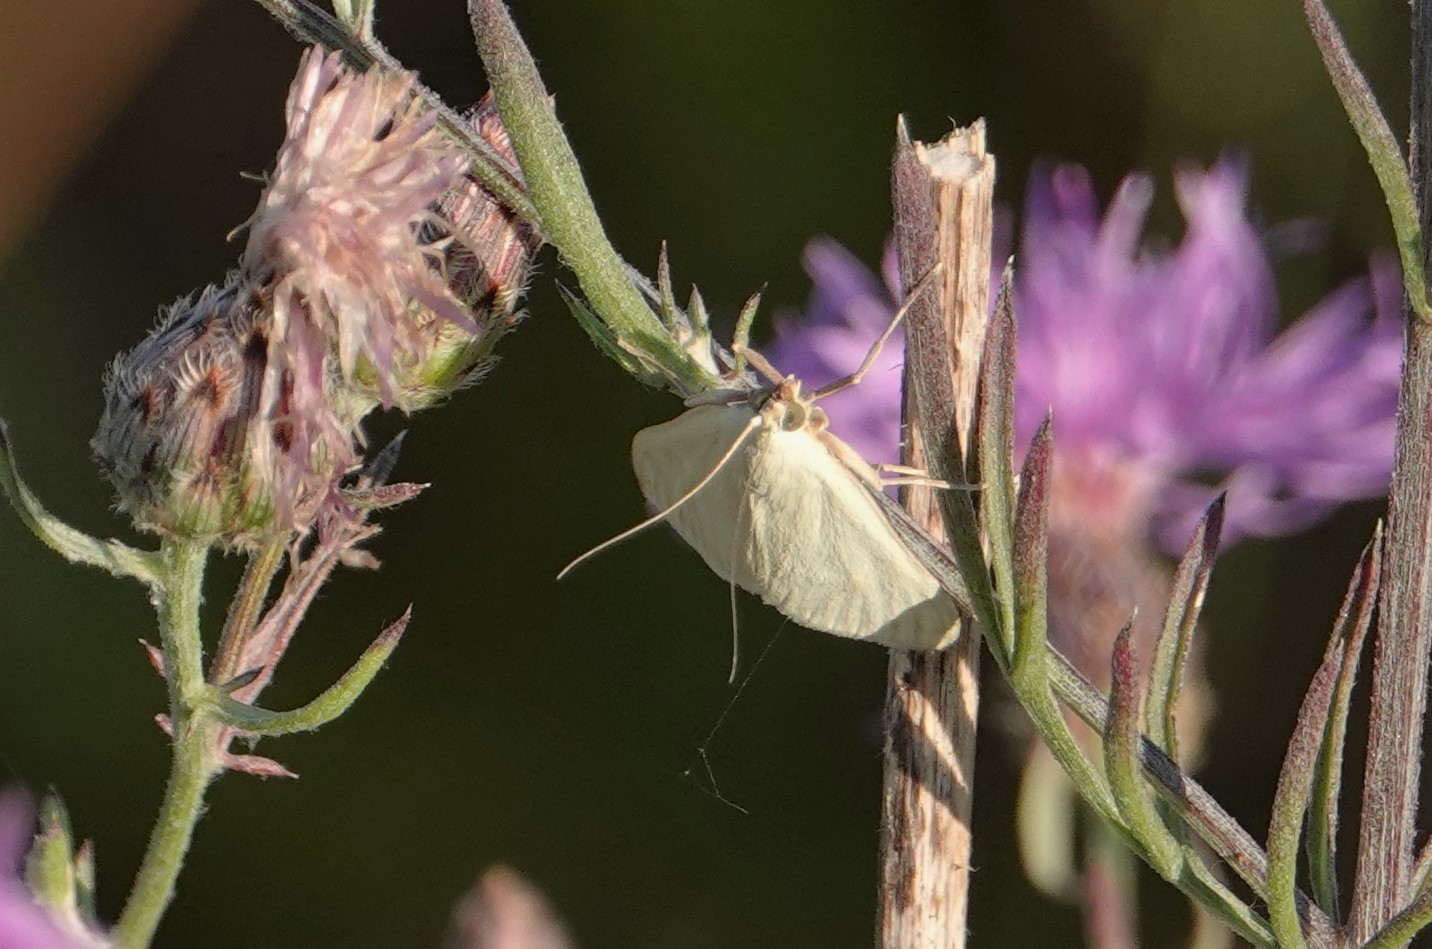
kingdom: Animalia
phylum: Arthropoda
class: Insecta
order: Lepidoptera
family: Crambidae
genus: Sitochroa
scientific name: Sitochroa palealis
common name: Greenish-yellow sitochroa moth
